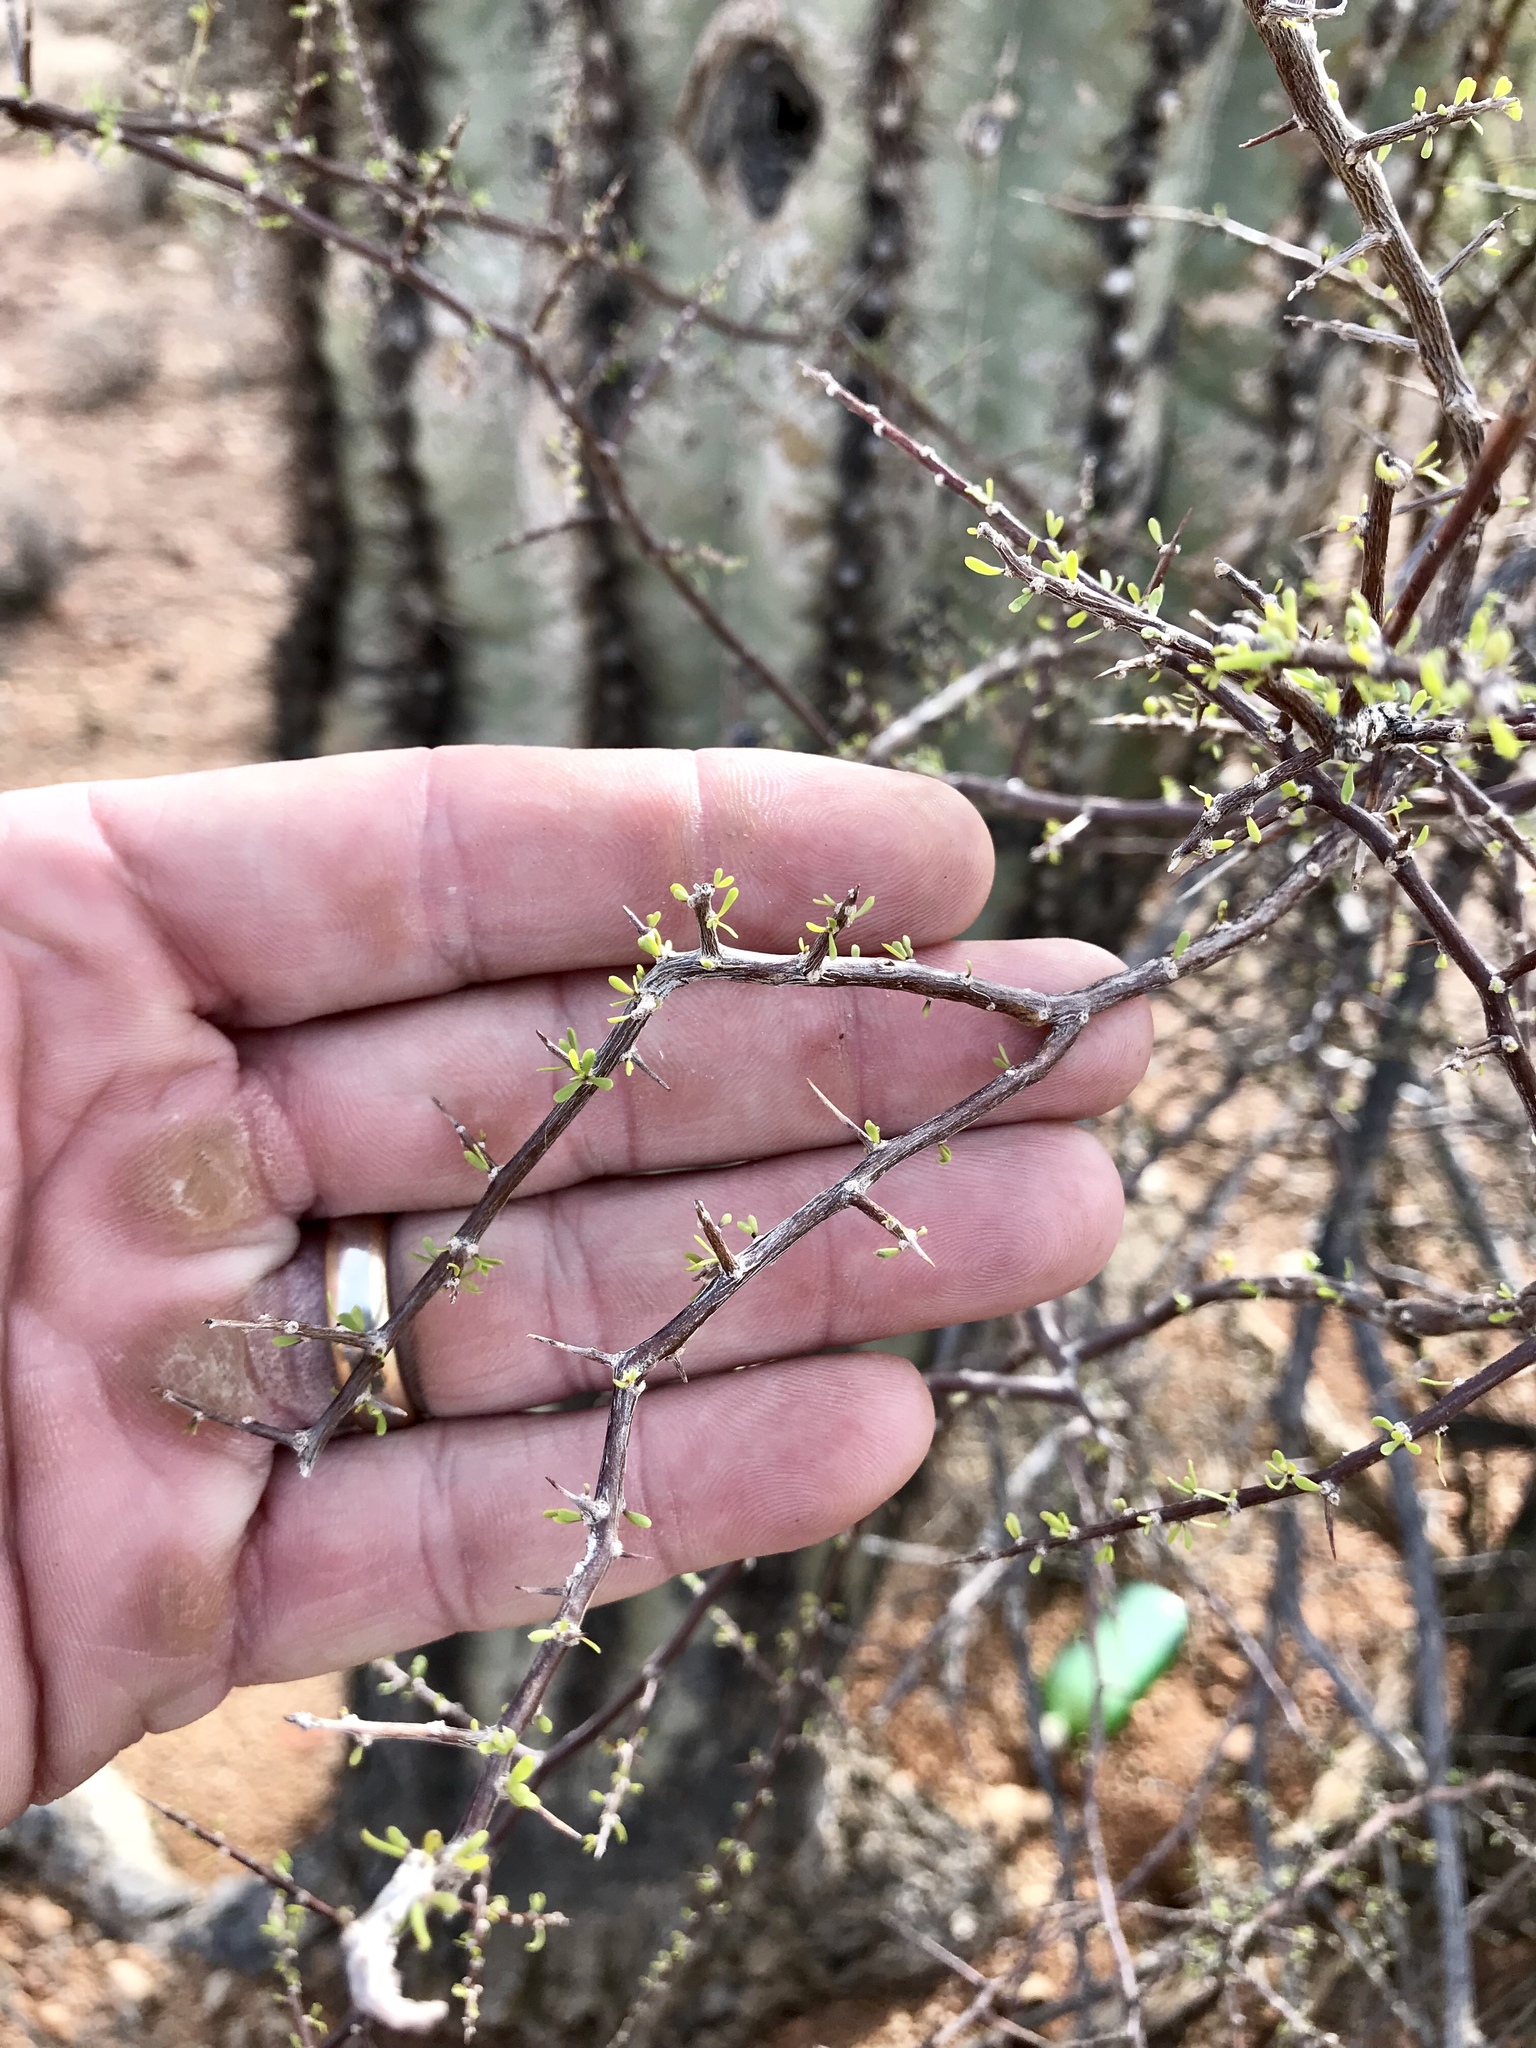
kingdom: Plantae
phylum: Tracheophyta
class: Magnoliopsida
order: Solanales
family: Solanaceae
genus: Lycium
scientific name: Lycium berlandieri
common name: Berlandier wolfberry
